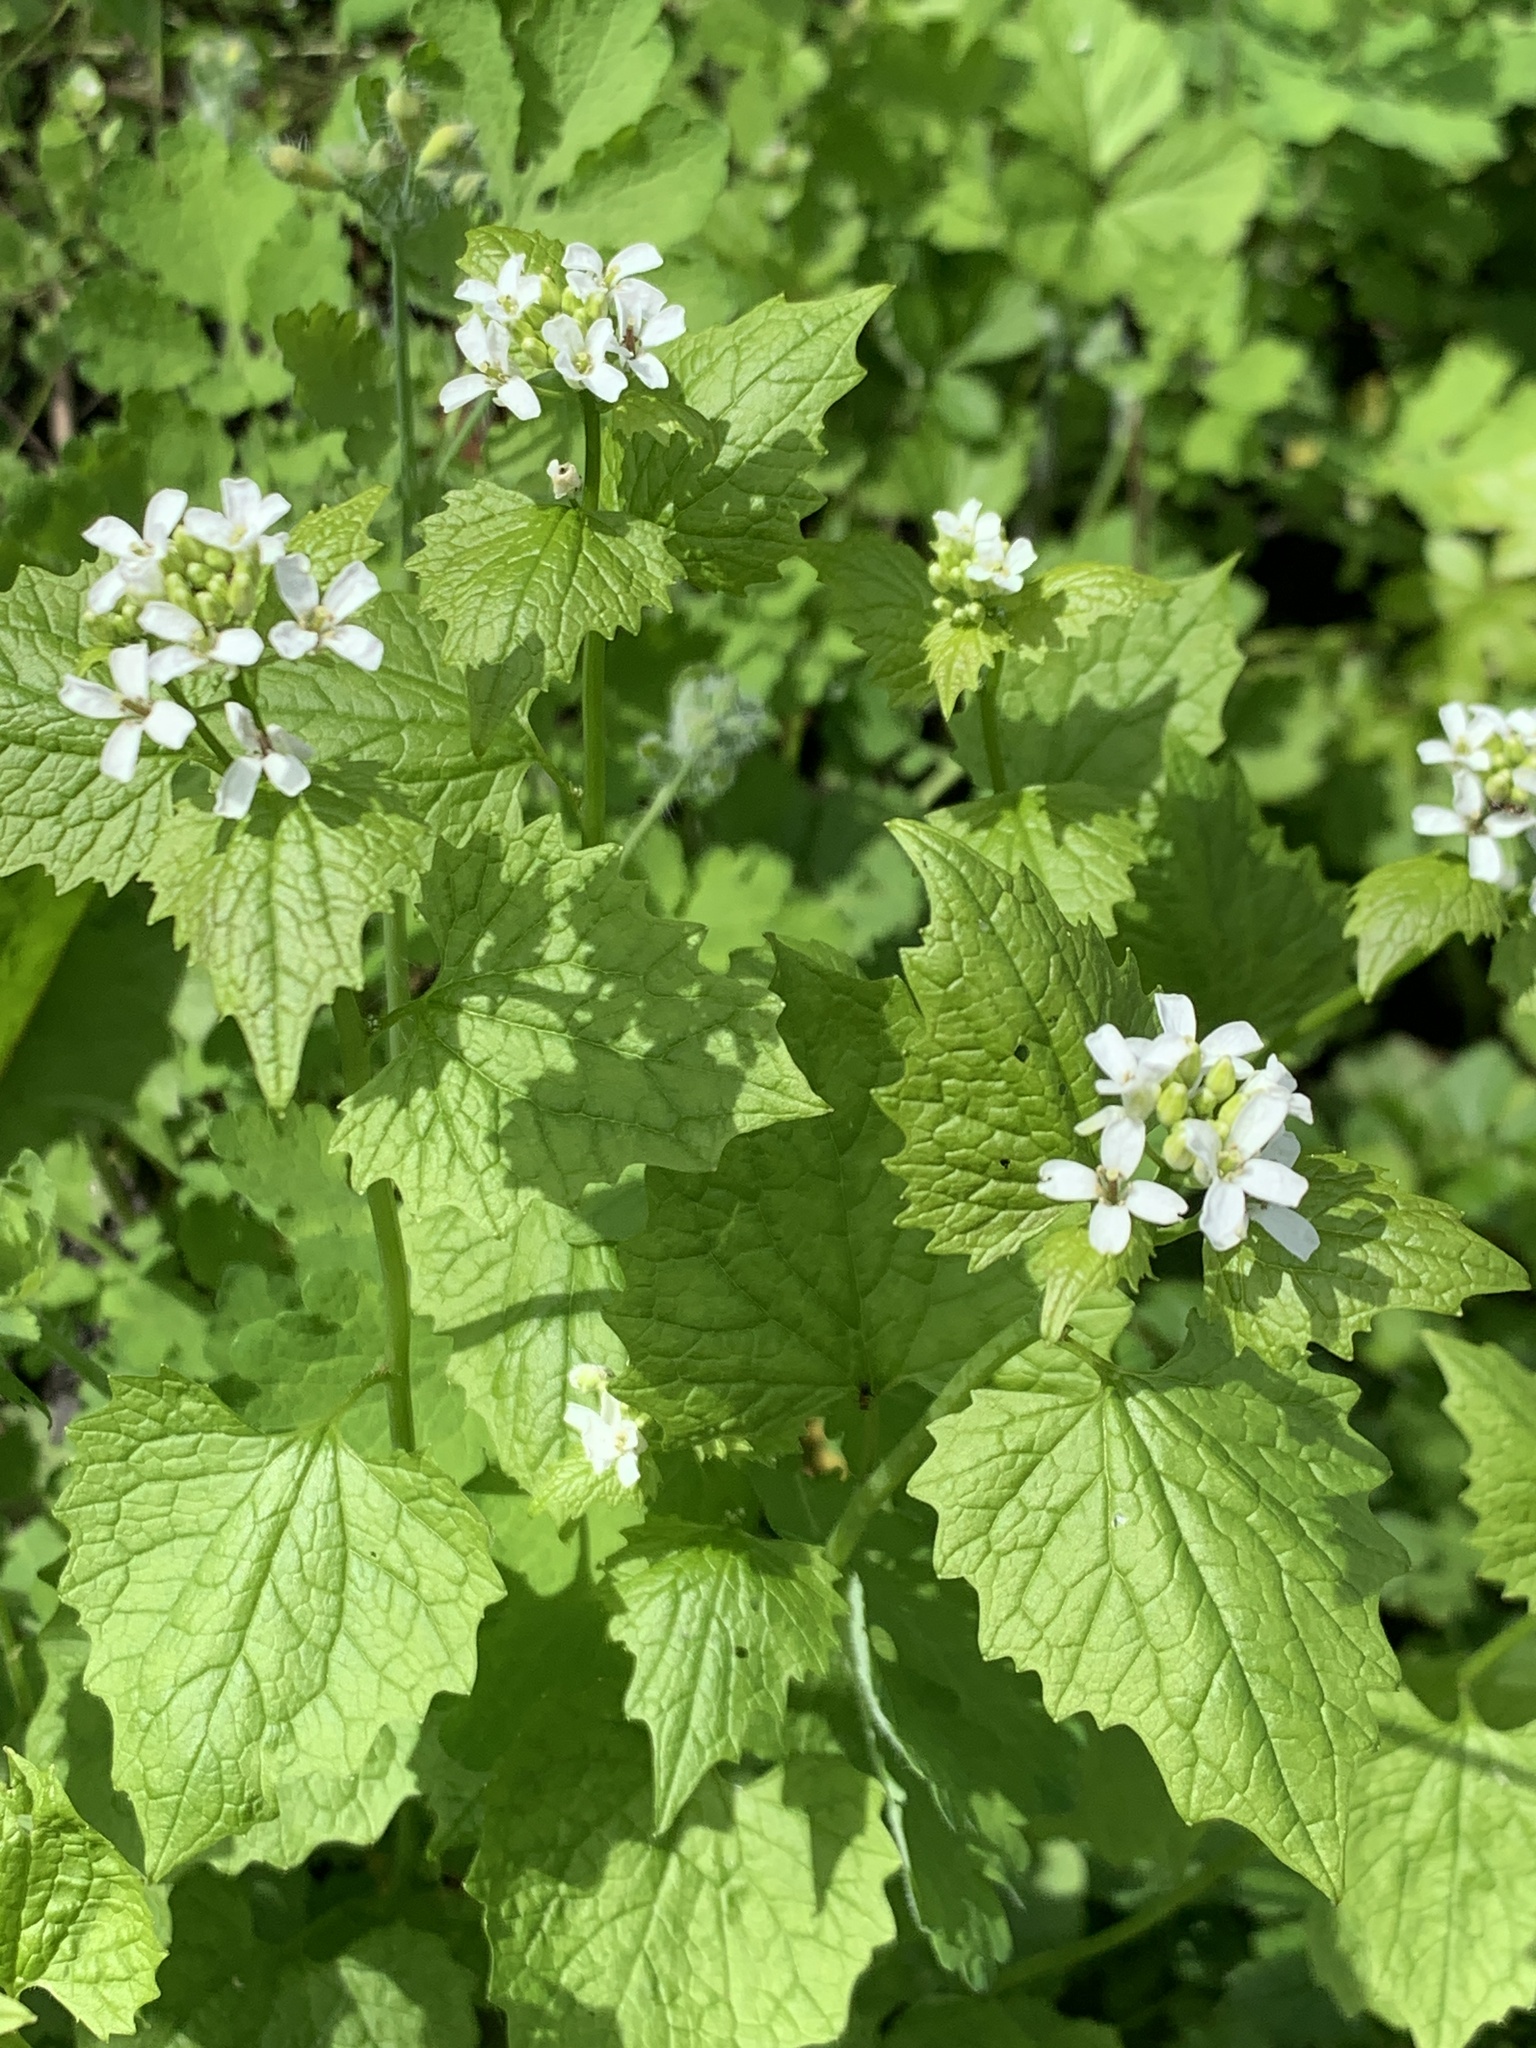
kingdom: Plantae
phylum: Tracheophyta
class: Magnoliopsida
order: Brassicales
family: Brassicaceae
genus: Alliaria
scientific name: Alliaria petiolata
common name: Garlic mustard
